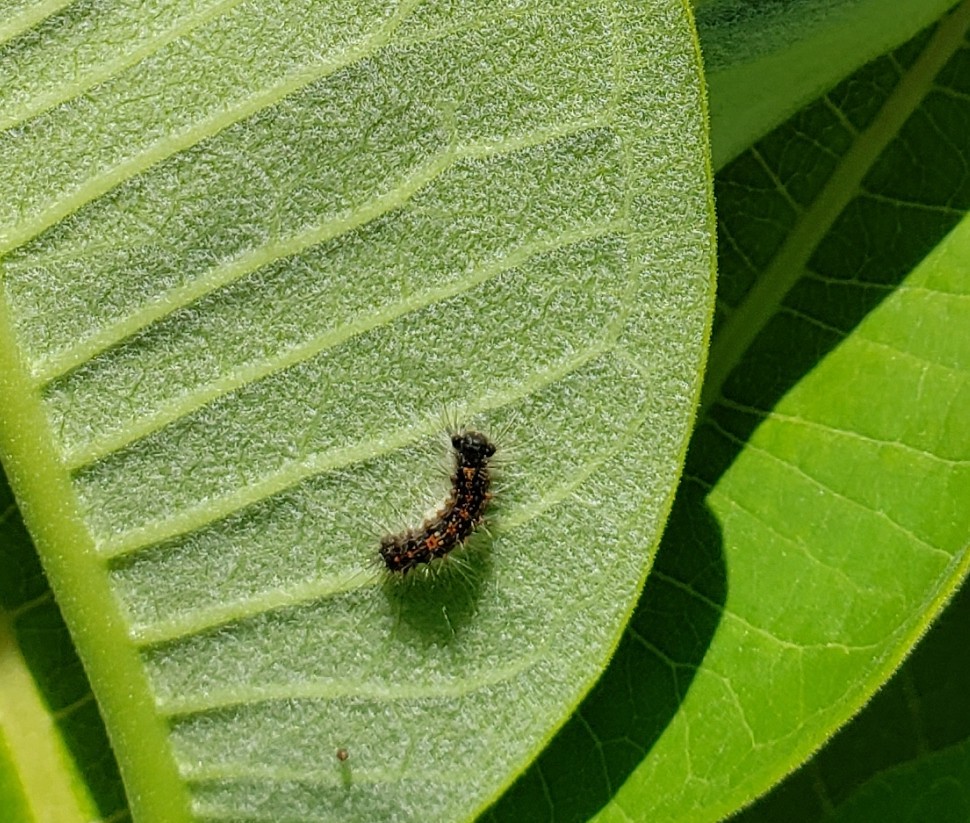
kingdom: Animalia
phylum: Arthropoda
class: Insecta
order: Lepidoptera
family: Erebidae
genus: Lymantria
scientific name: Lymantria dispar
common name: Gypsy moth
